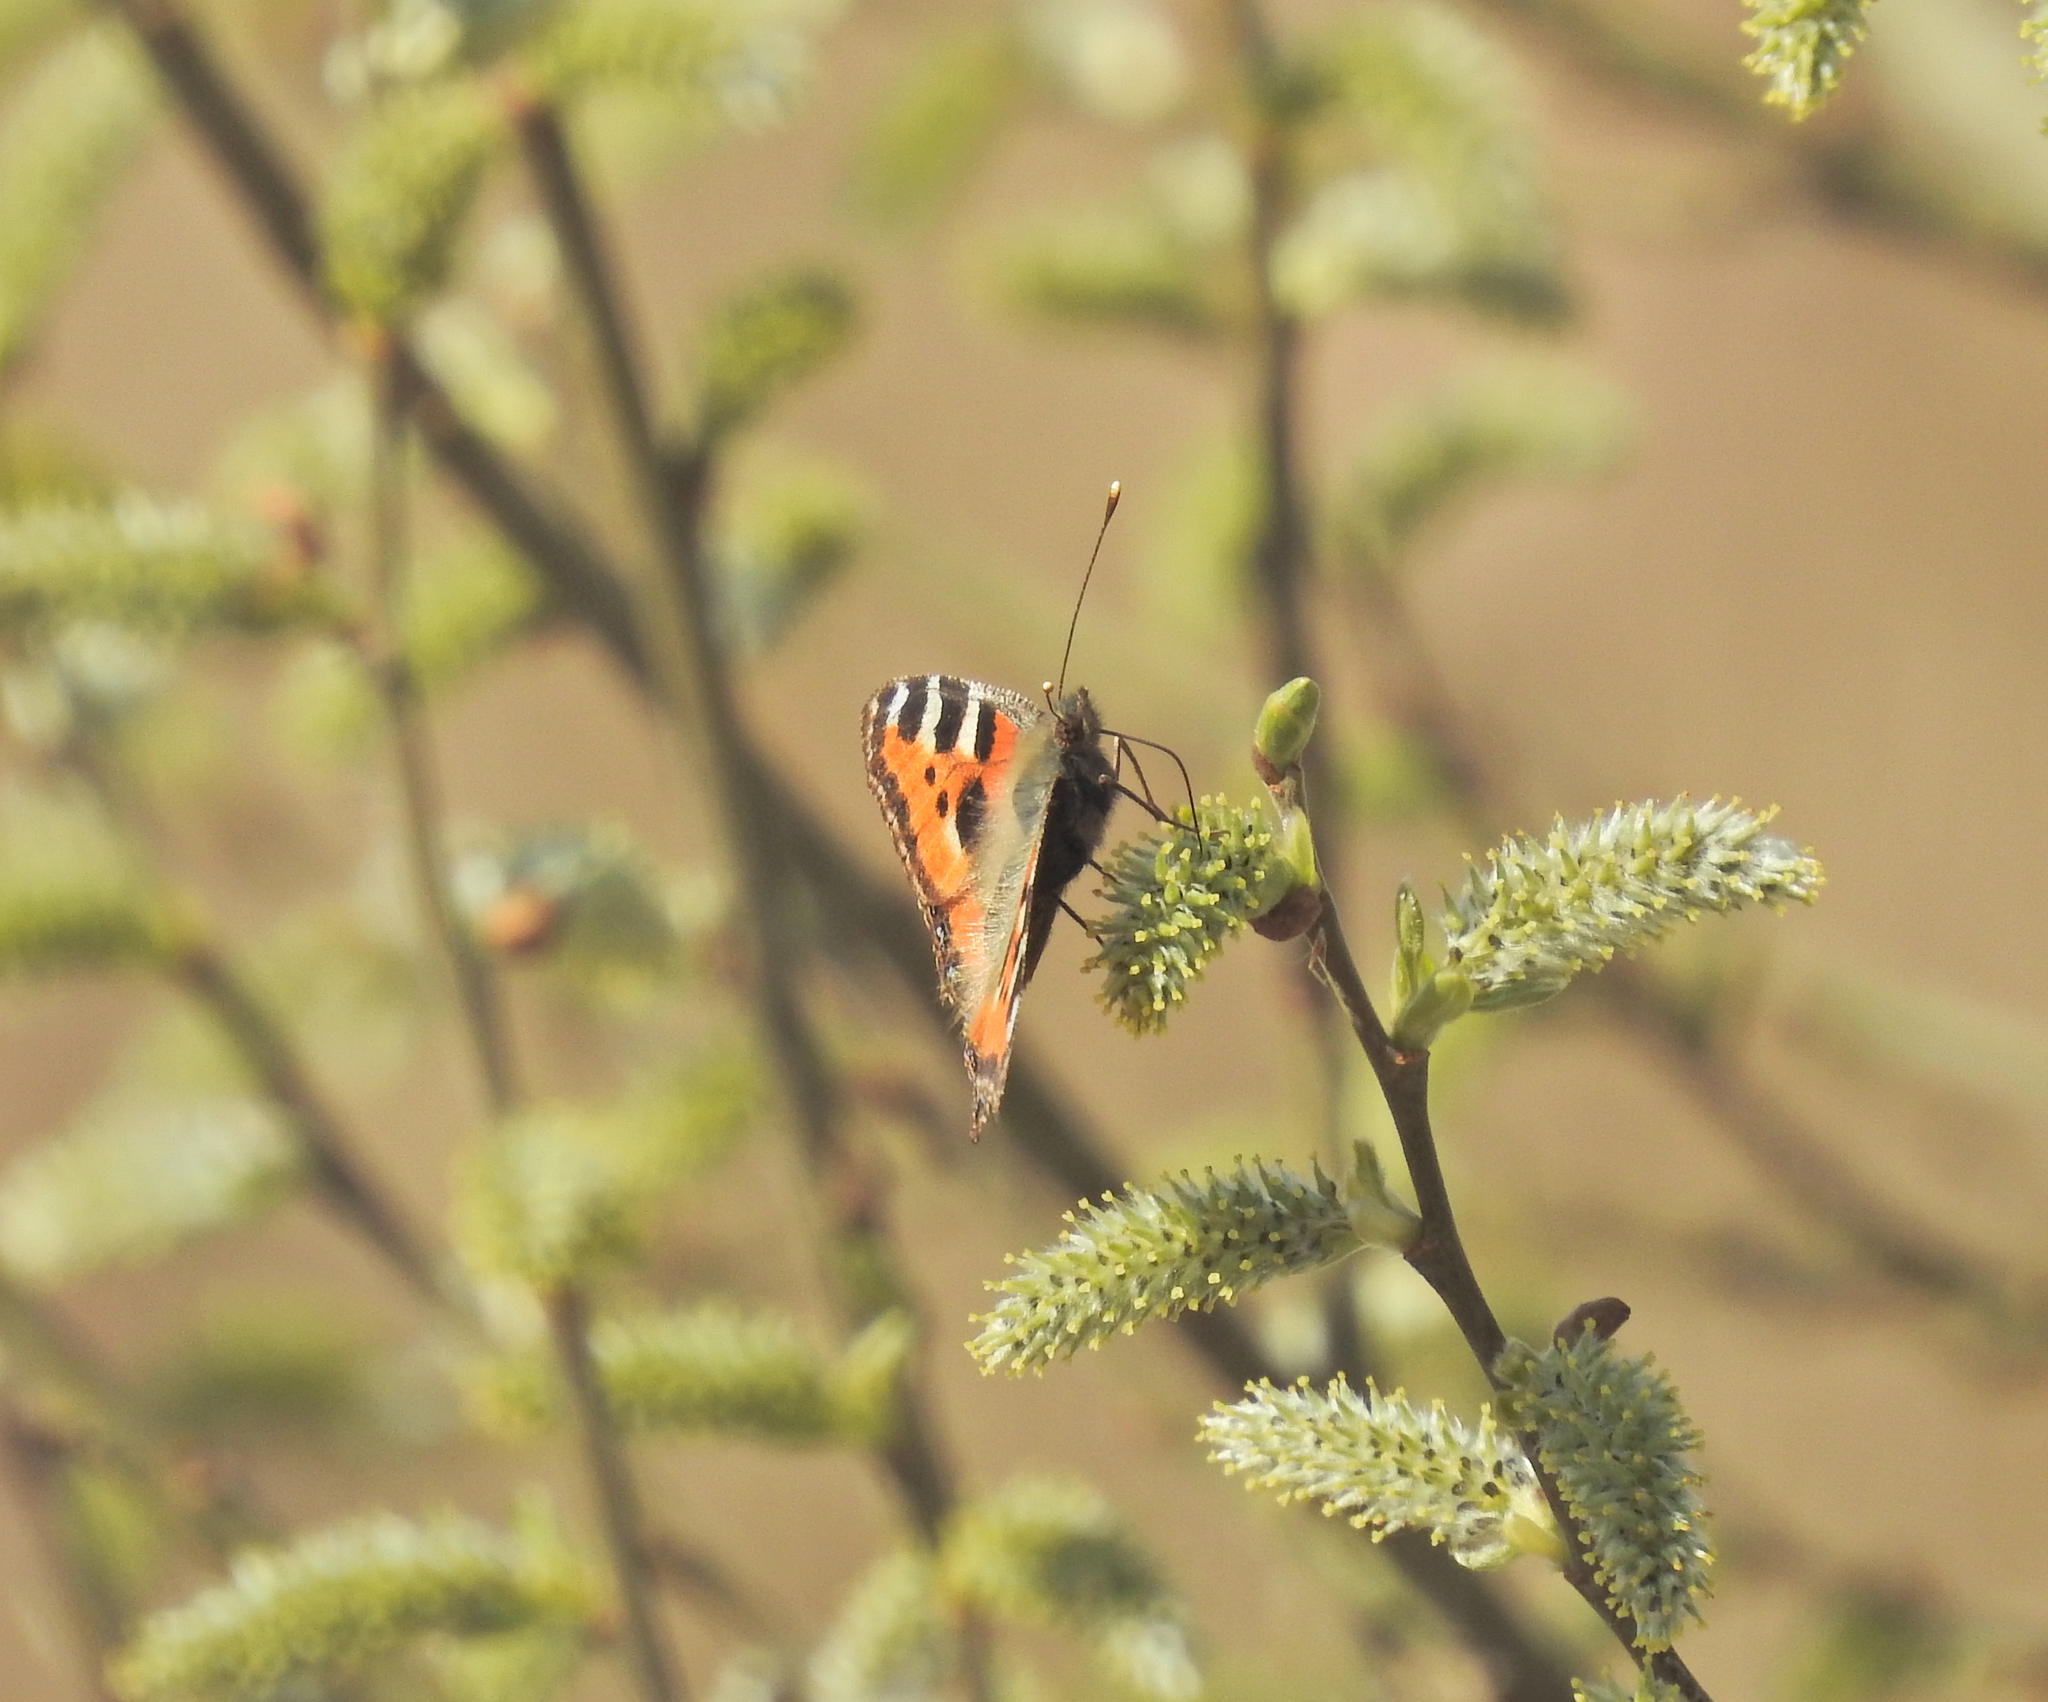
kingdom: Animalia
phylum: Arthropoda
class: Insecta
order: Lepidoptera
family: Nymphalidae
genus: Aglais
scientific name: Aglais urticae
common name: Small tortoiseshell
